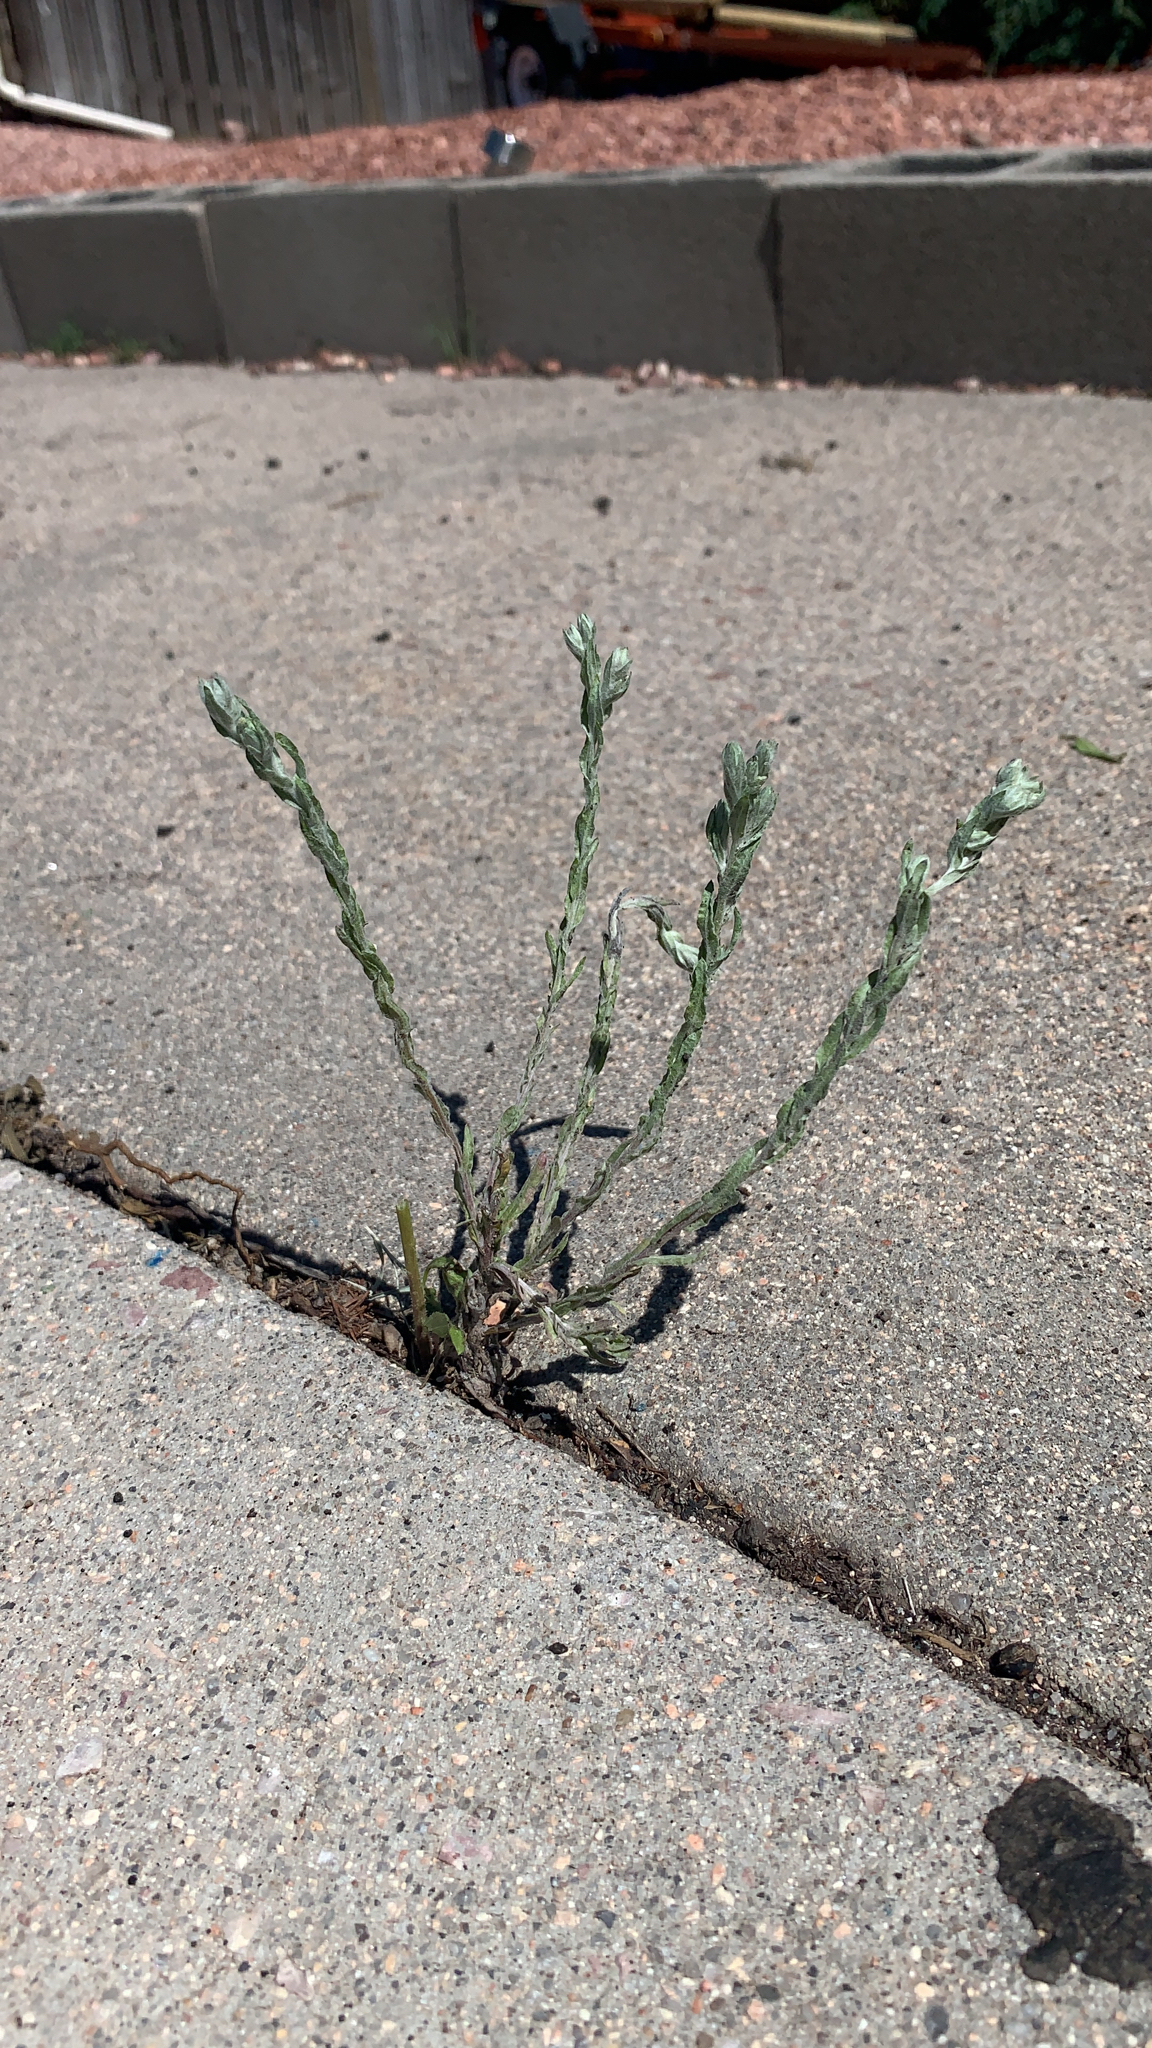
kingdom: Plantae
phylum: Tracheophyta
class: Magnoliopsida
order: Asterales
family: Asteraceae
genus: Filago
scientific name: Filago arvensis
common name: Field cudweed
